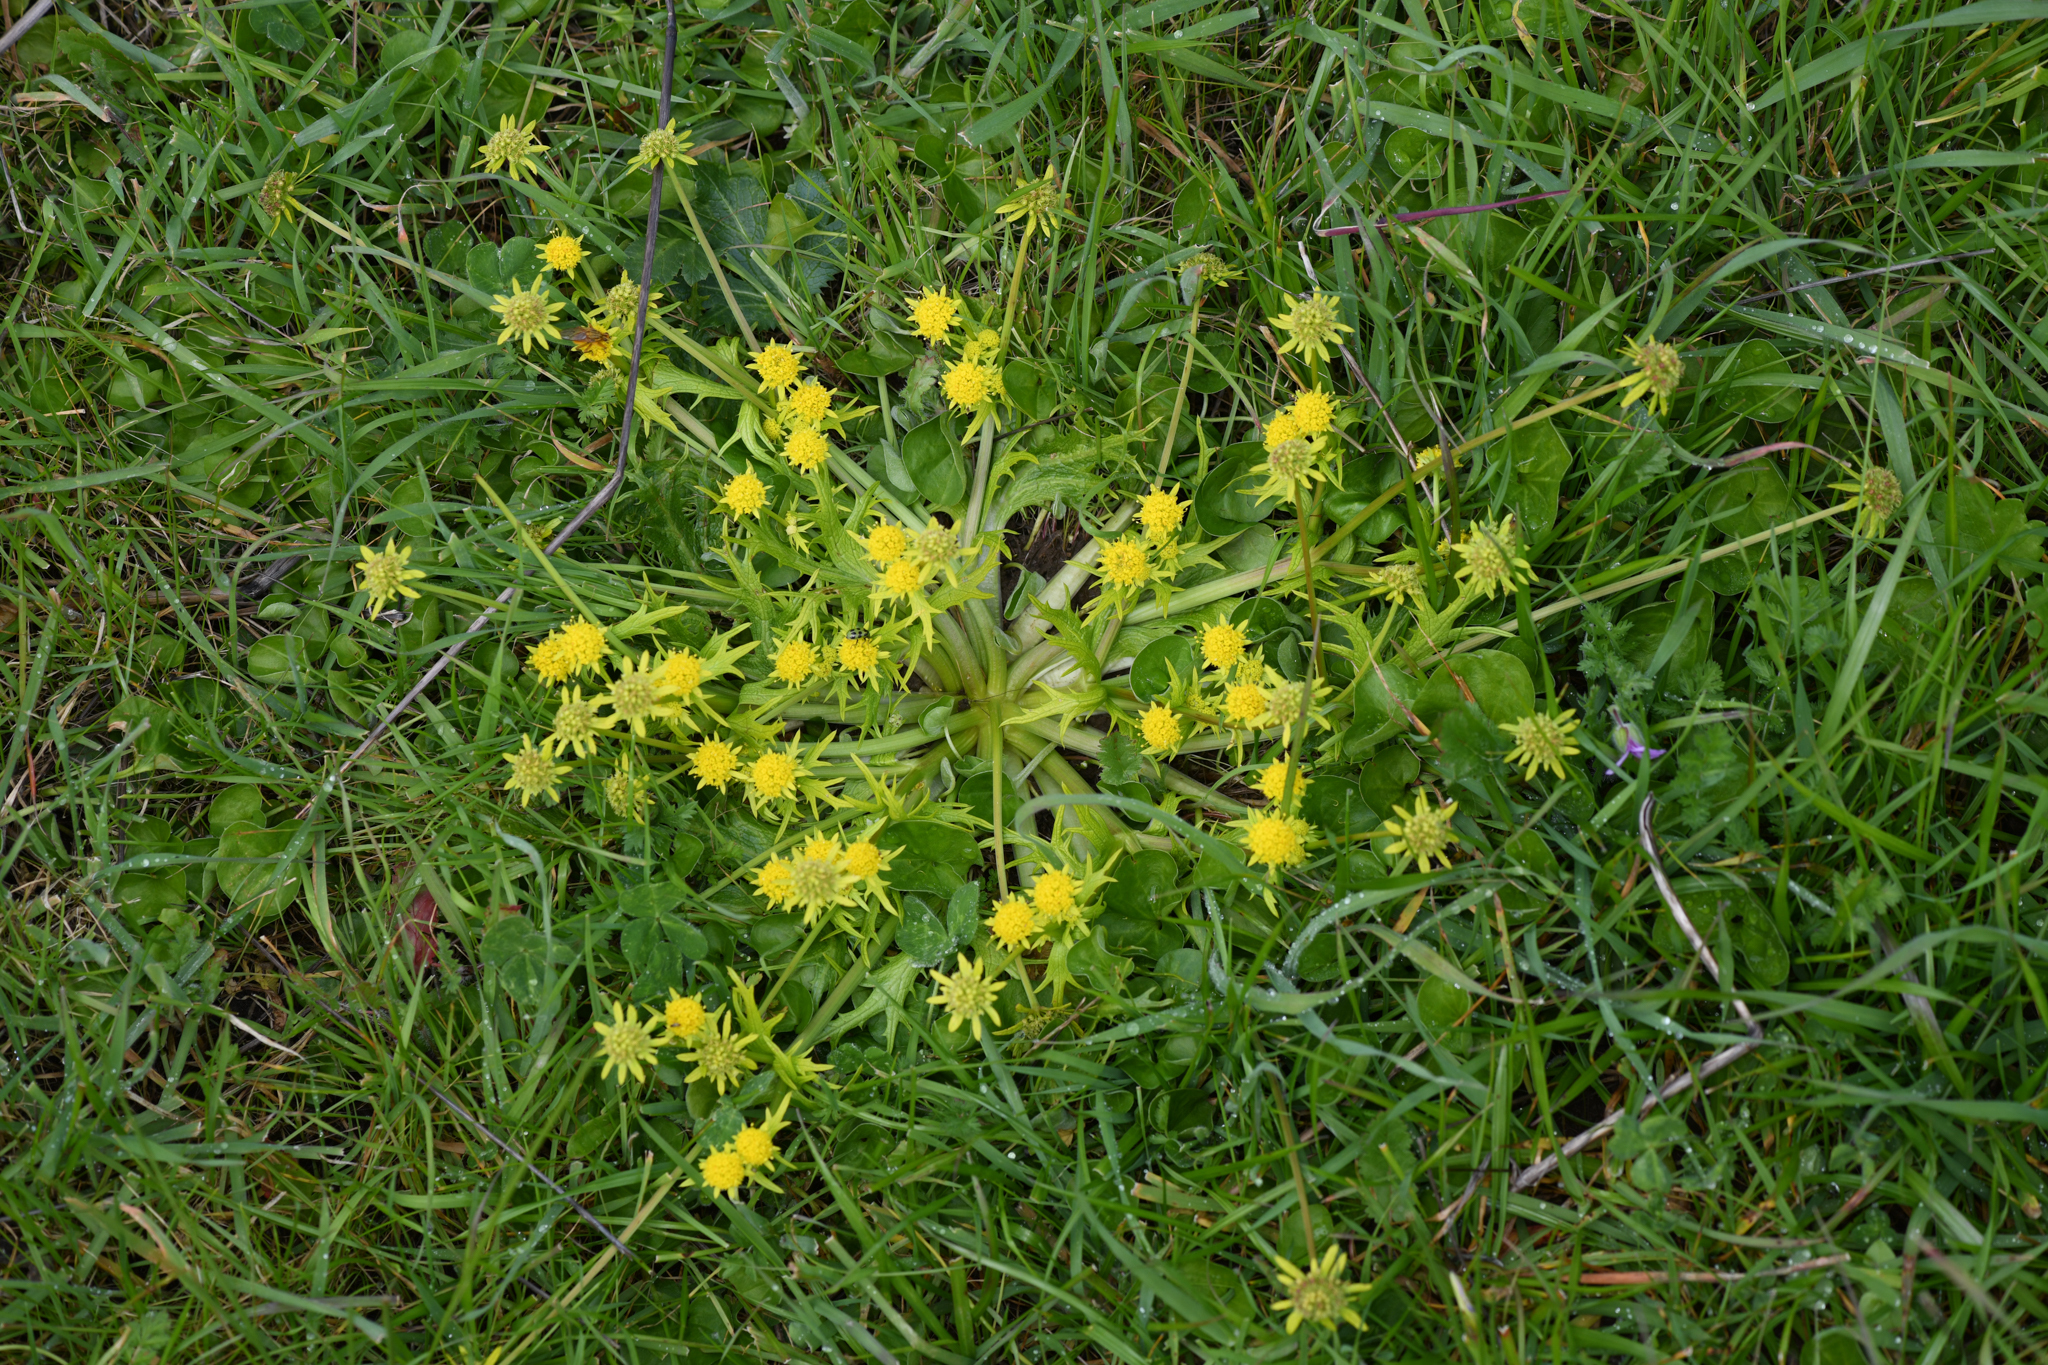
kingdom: Plantae
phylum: Tracheophyta
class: Magnoliopsida
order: Apiales
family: Apiaceae
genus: Sanicula
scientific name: Sanicula arctopoides
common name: Footsteps-of-spring
